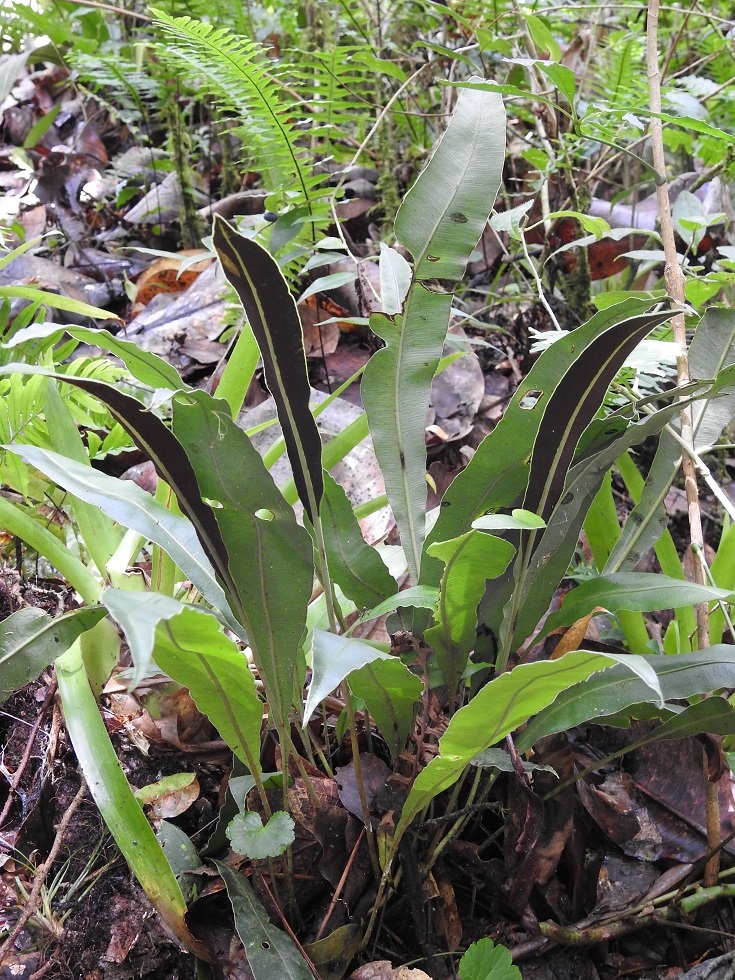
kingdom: Plantae
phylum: Tracheophyta
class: Polypodiopsida
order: Polypodiales
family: Dryopteridaceae
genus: Elaphoglossum
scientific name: Elaphoglossum mesoamericanum
